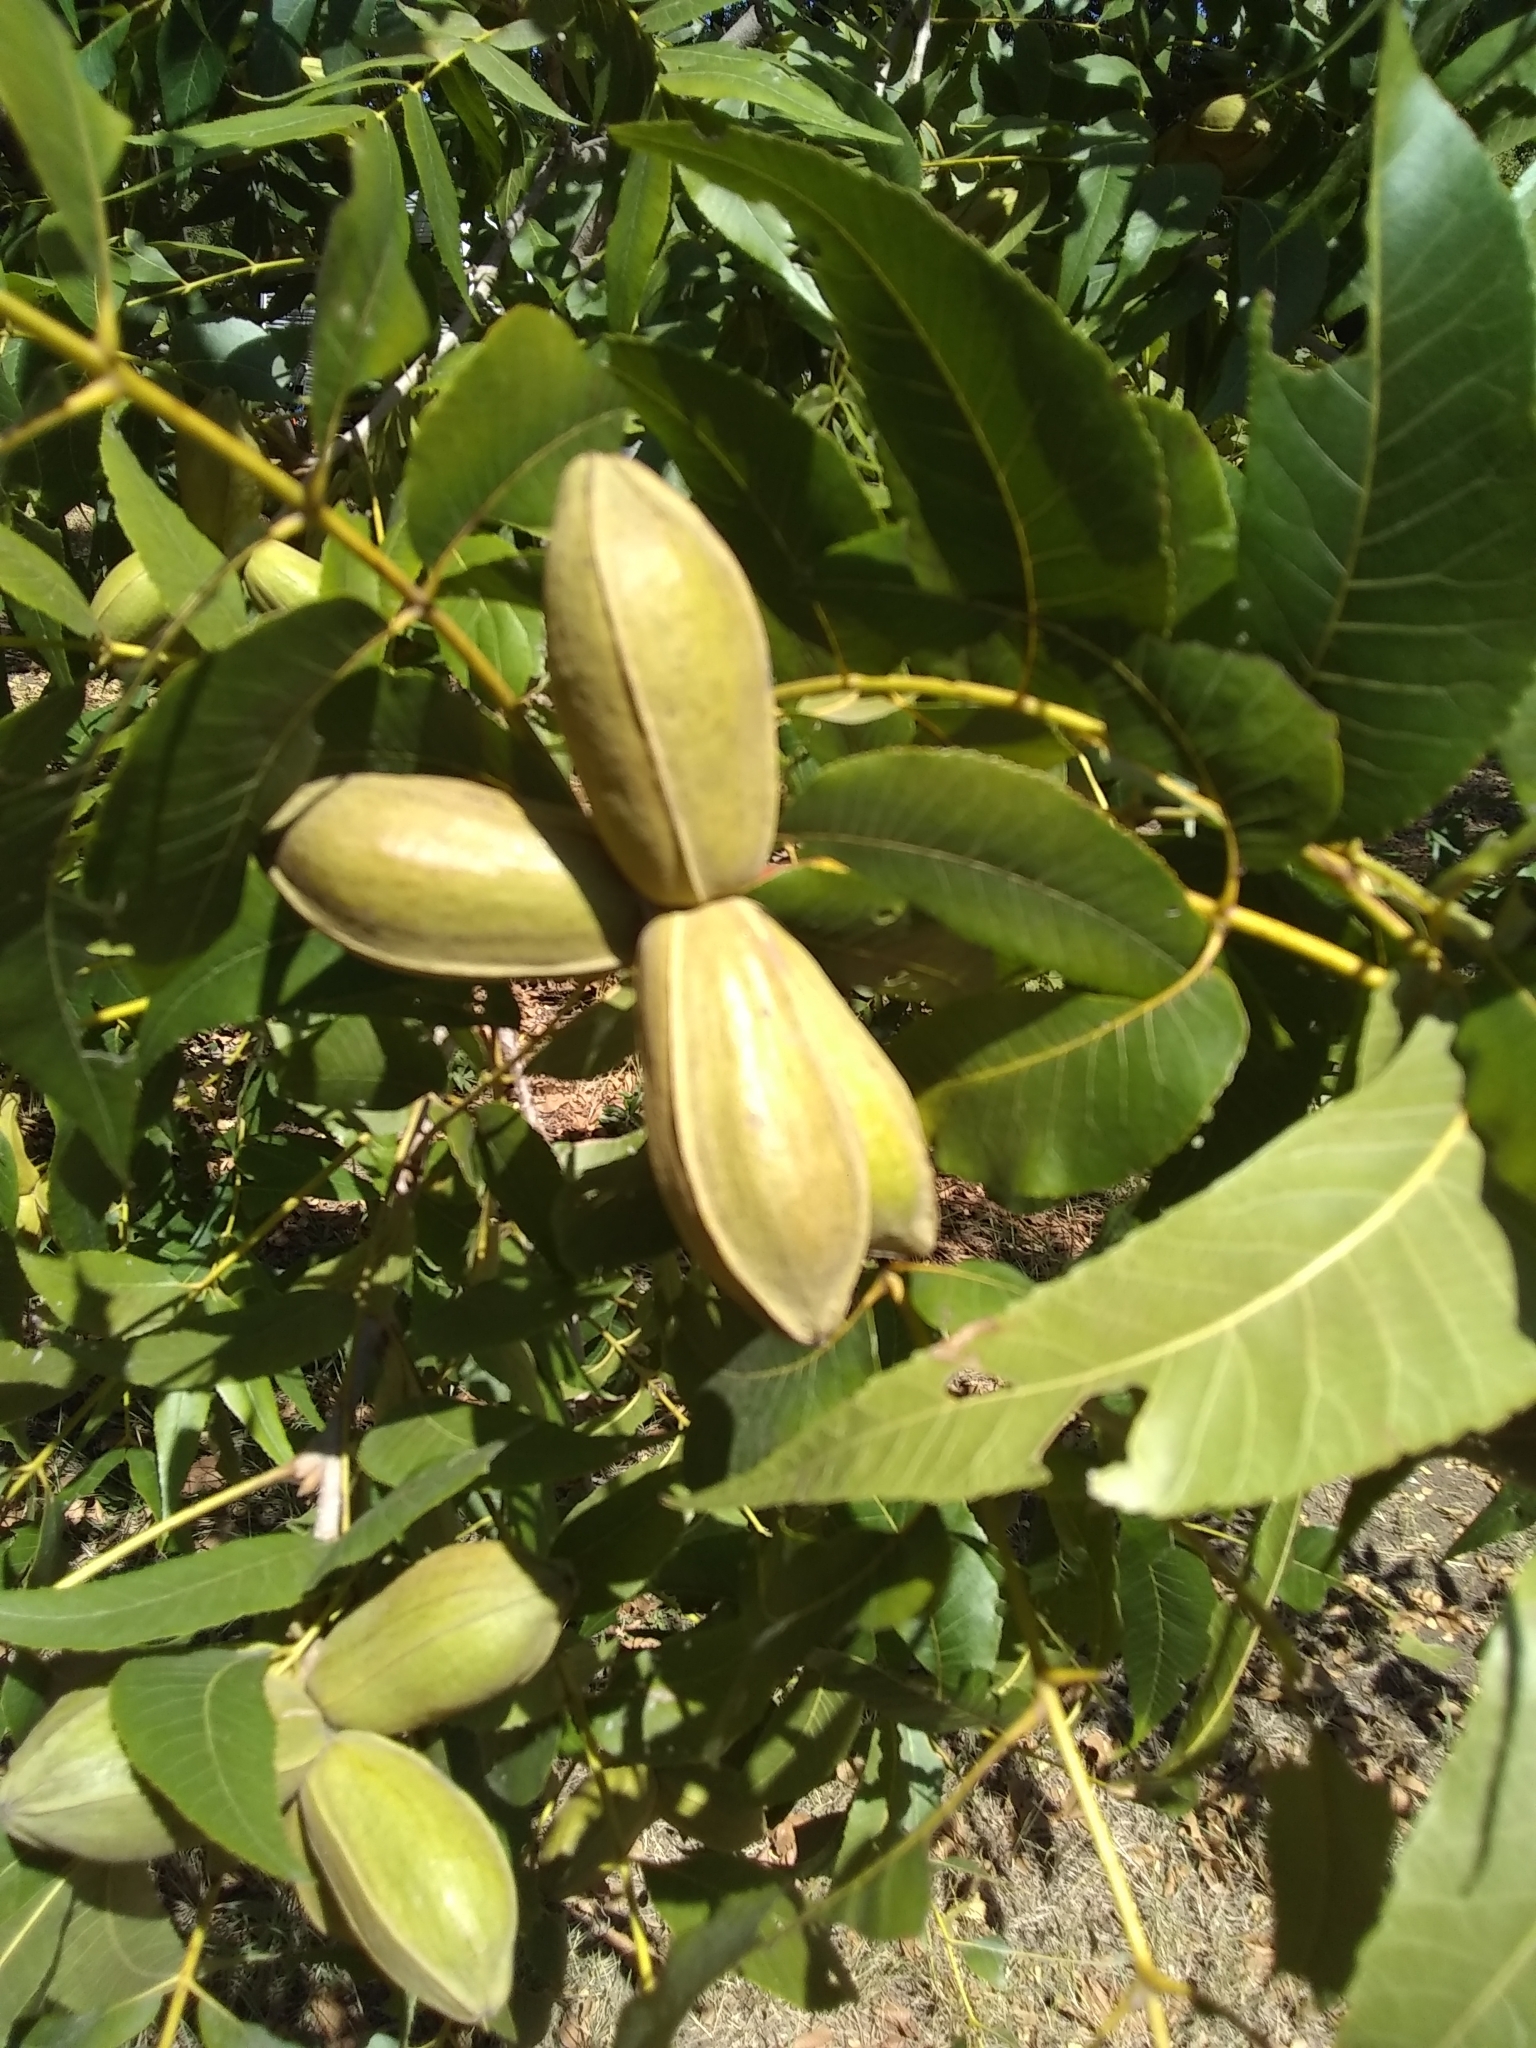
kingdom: Plantae
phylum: Tracheophyta
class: Magnoliopsida
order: Fagales
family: Juglandaceae
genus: Carya
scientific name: Carya illinoinensis
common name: Pecan
